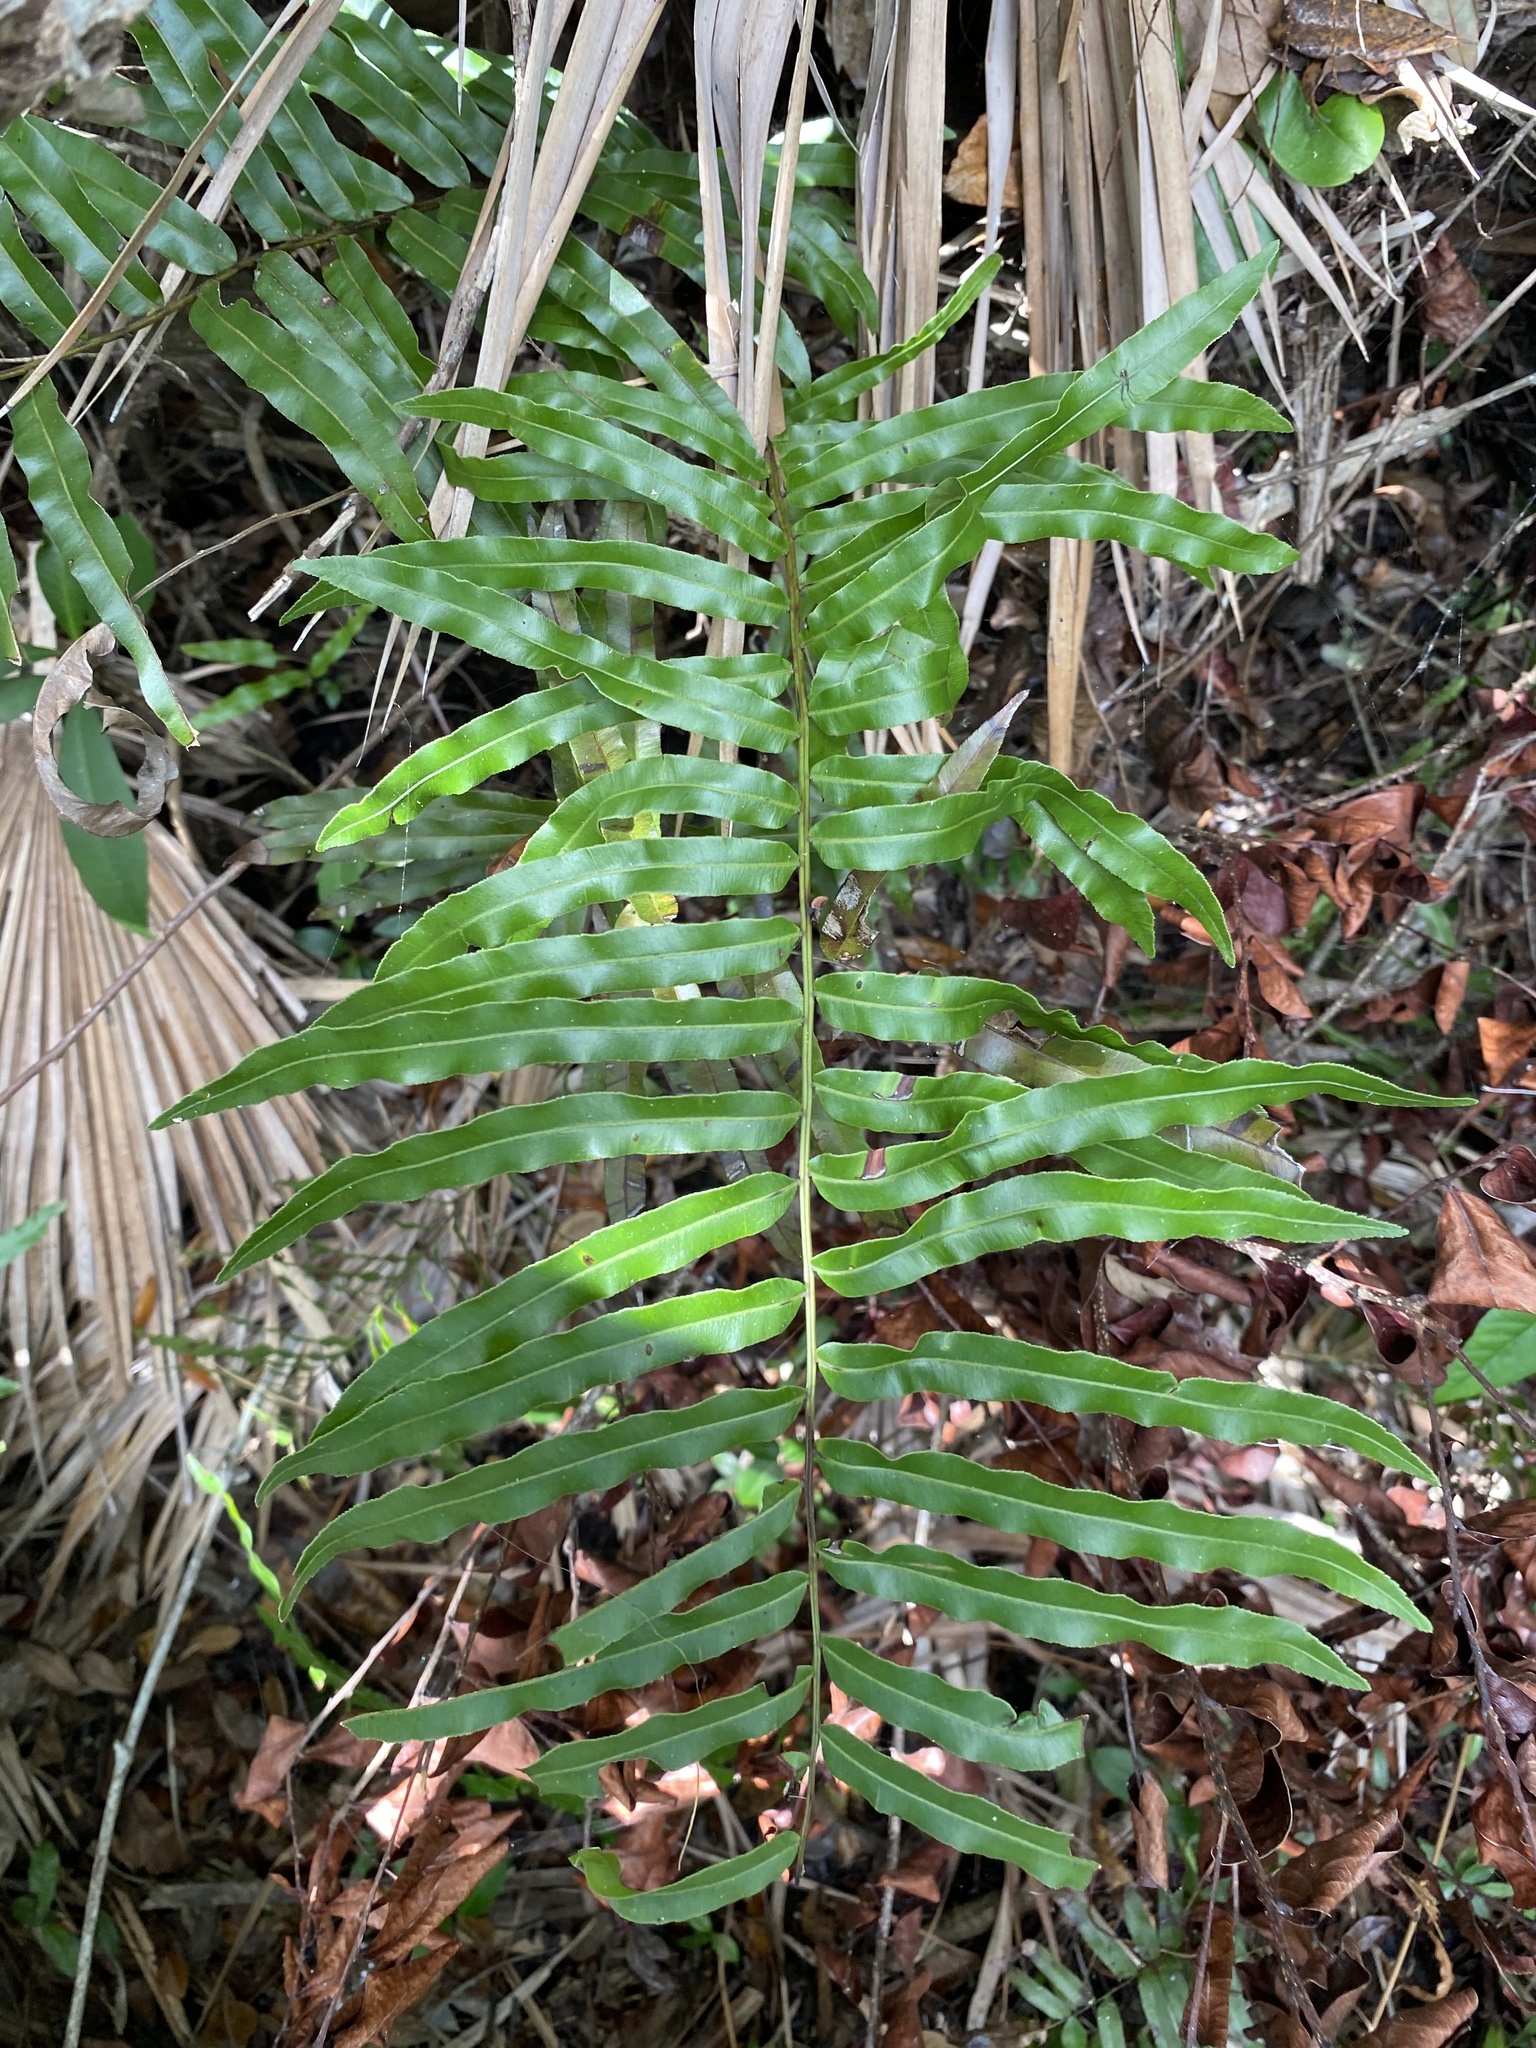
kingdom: Plantae
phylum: Tracheophyta
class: Polypodiopsida
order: Polypodiales
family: Blechnaceae
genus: Telmatoblechnum
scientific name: Telmatoblechnum serrulatum
